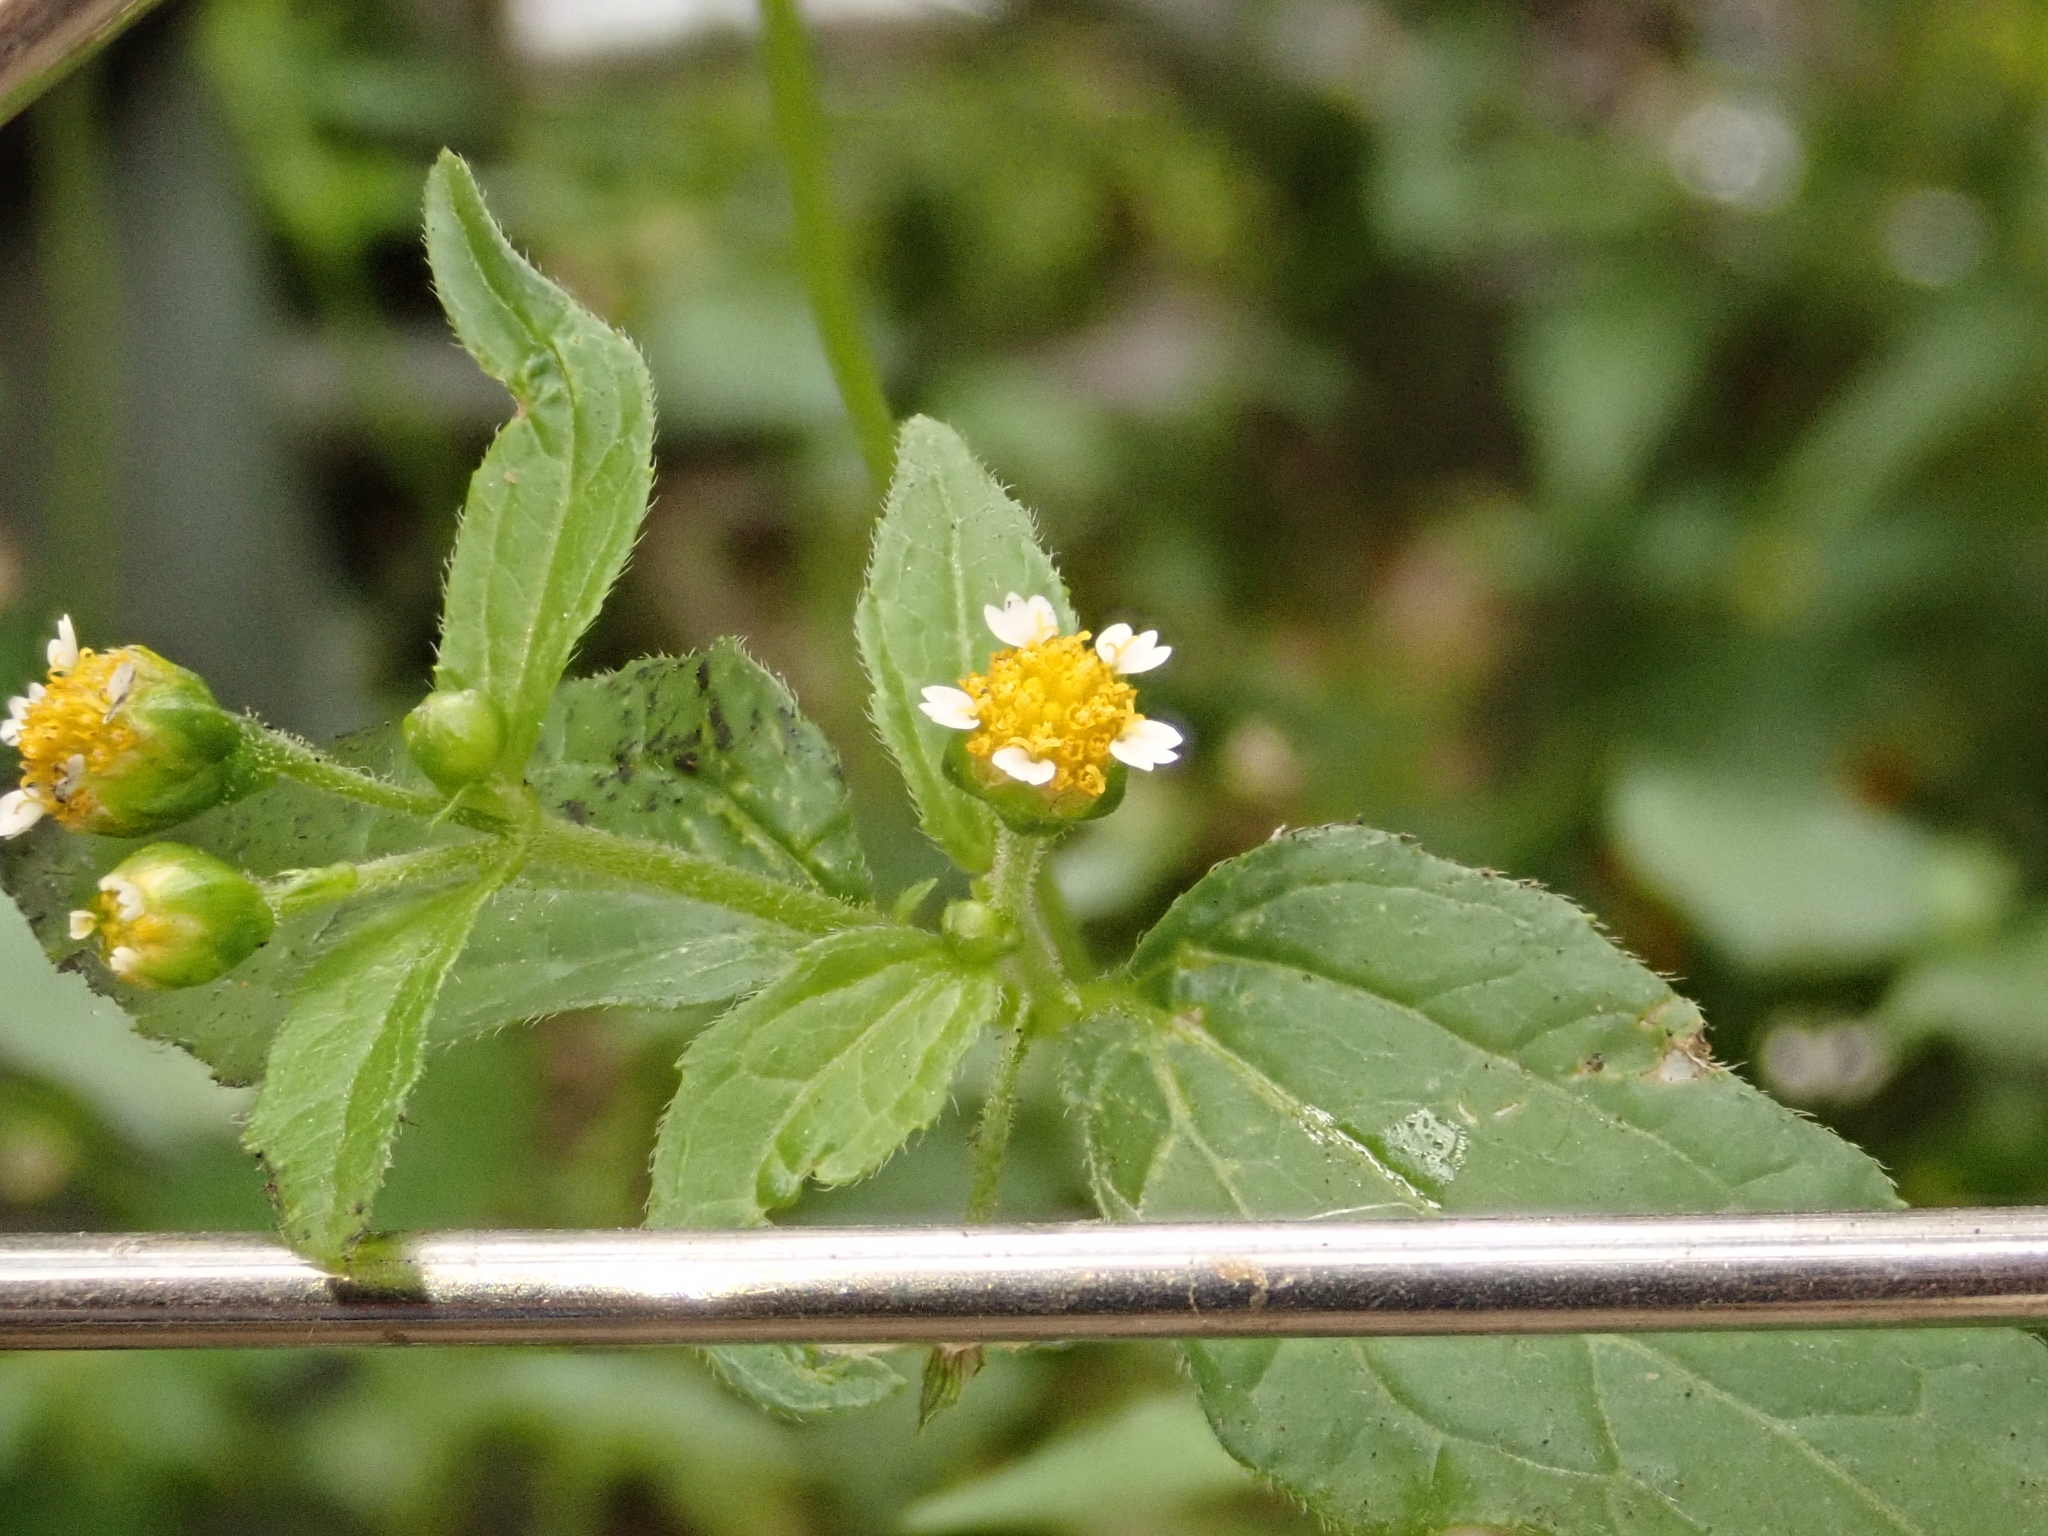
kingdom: Plantae
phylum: Tracheophyta
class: Magnoliopsida
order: Asterales
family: Asteraceae
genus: Galinsoga
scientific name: Galinsoga parviflora
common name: Gallant soldier
